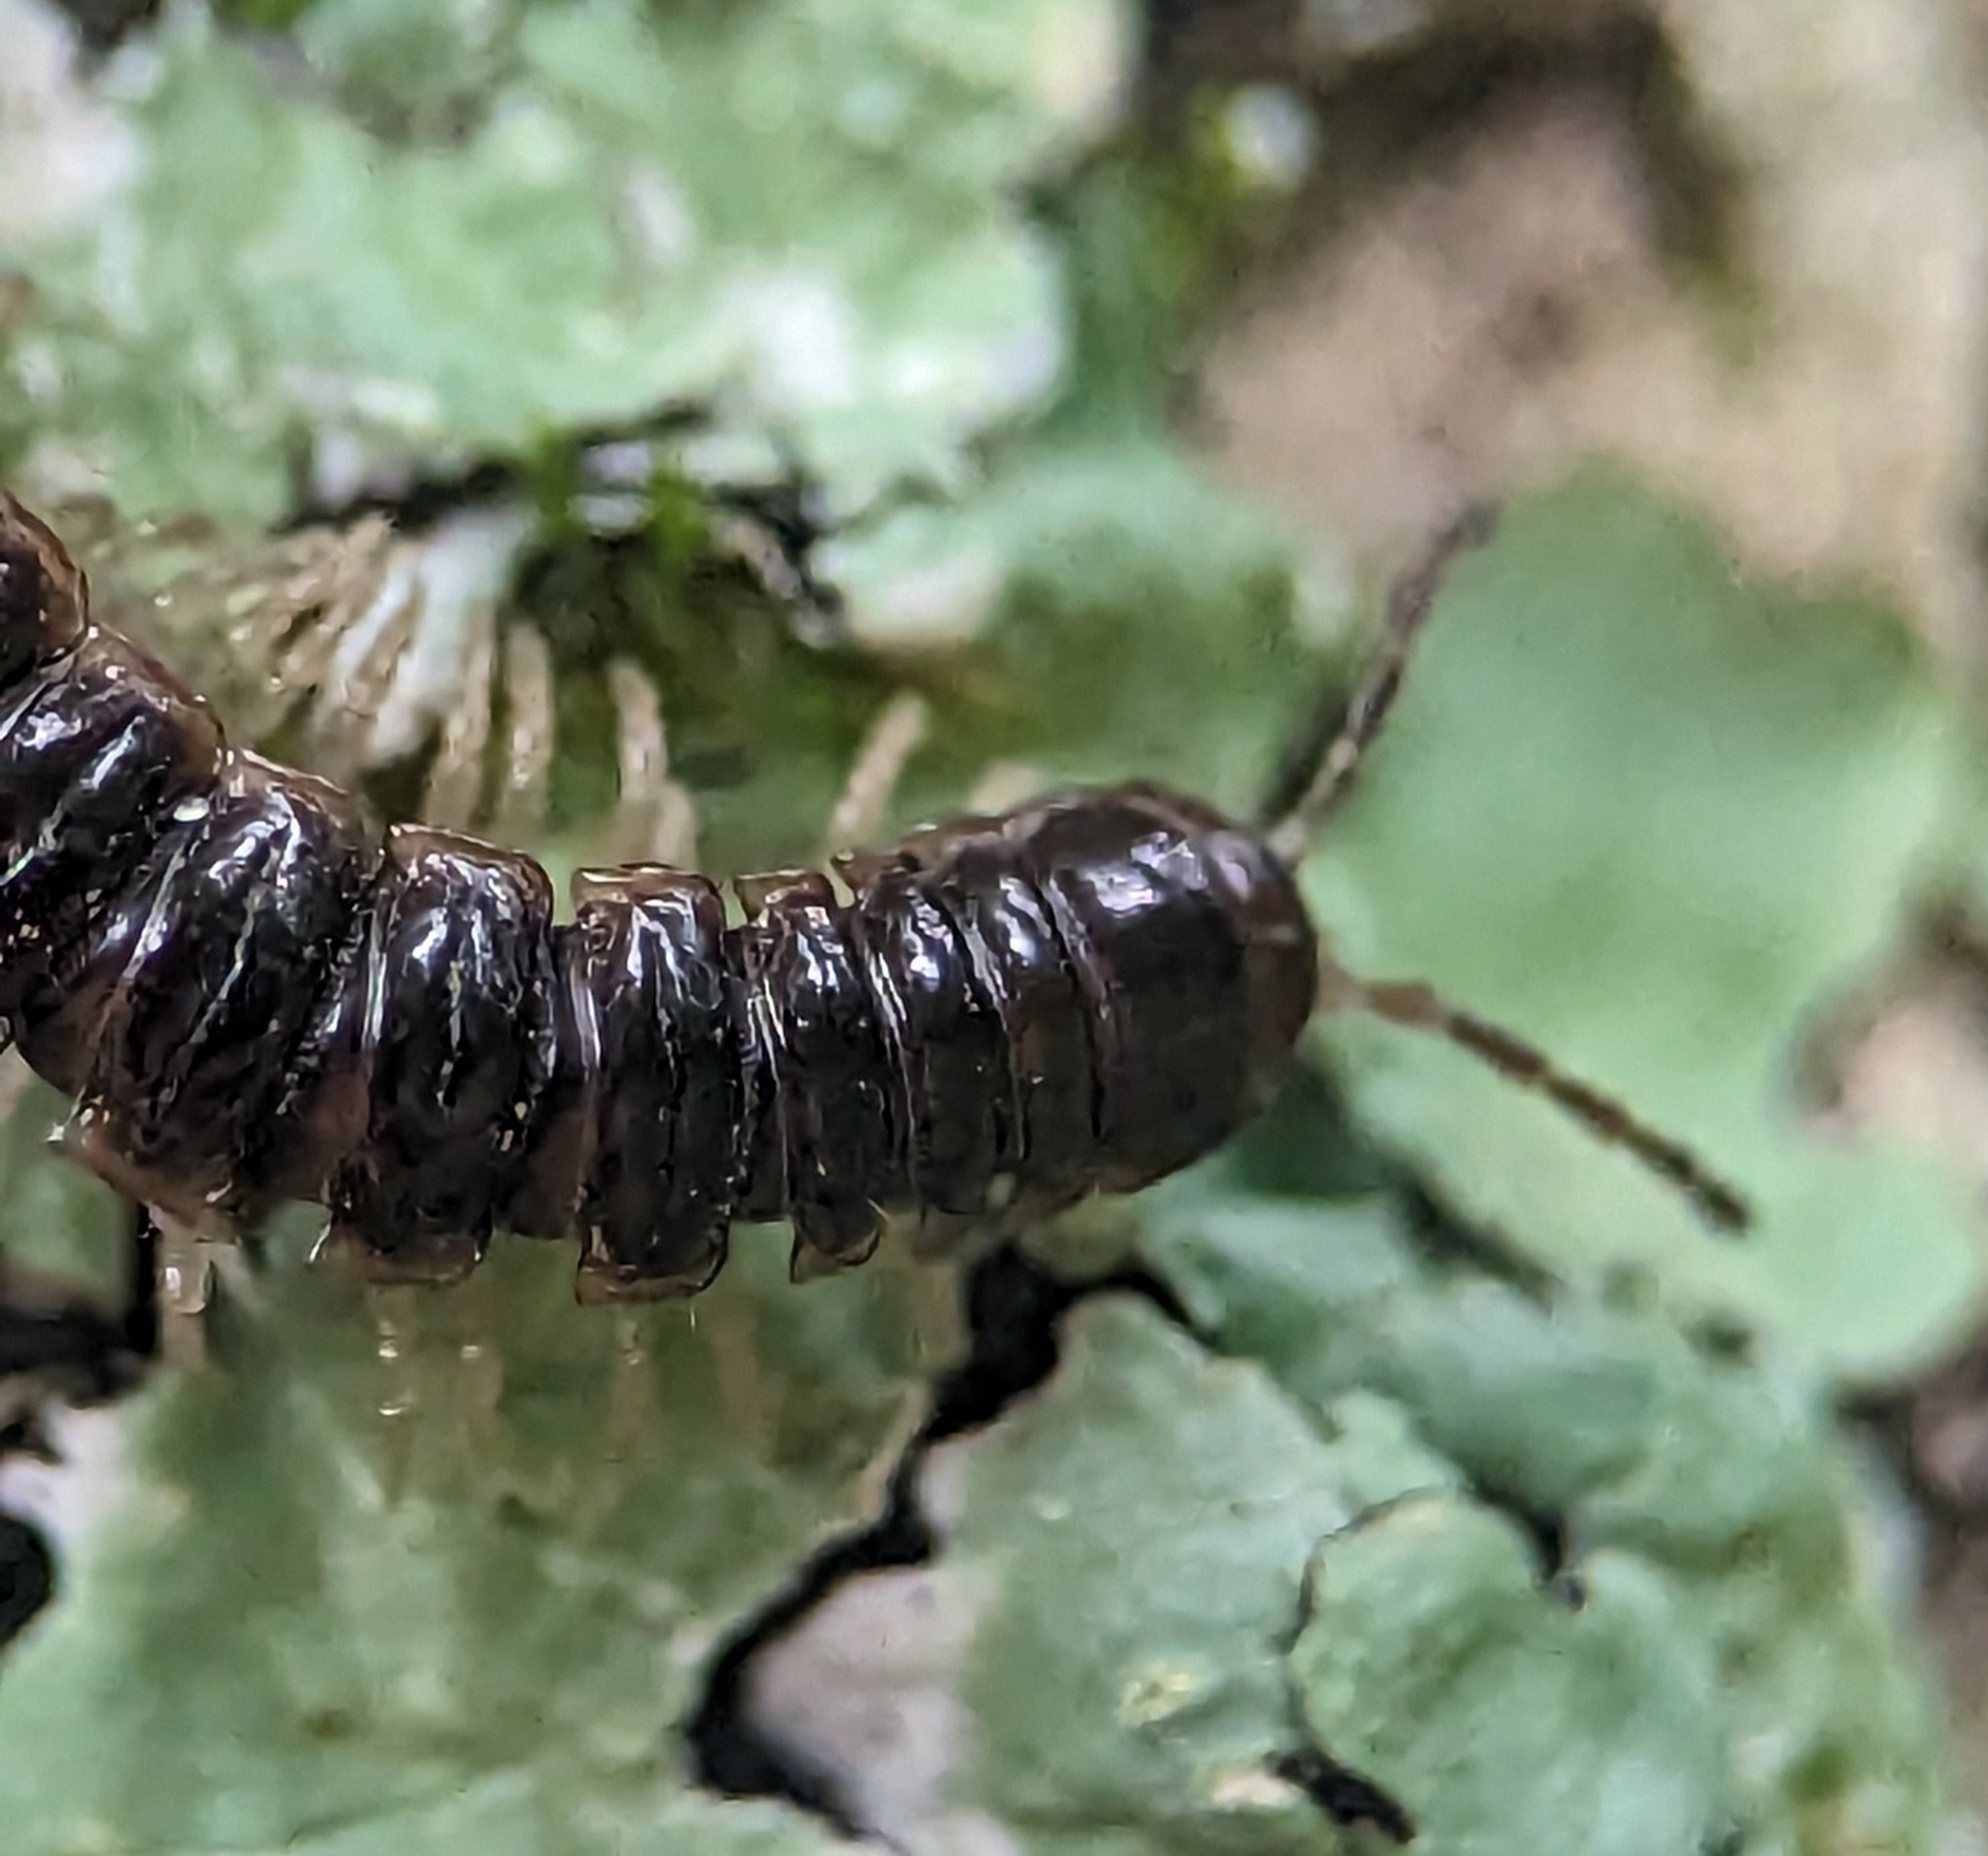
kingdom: Animalia
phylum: Arthropoda
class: Diplopoda
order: Polydesmida
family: Paradoxosomatidae
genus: Oxidus
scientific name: Oxidus gracilis
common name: Greenhouse millipede
